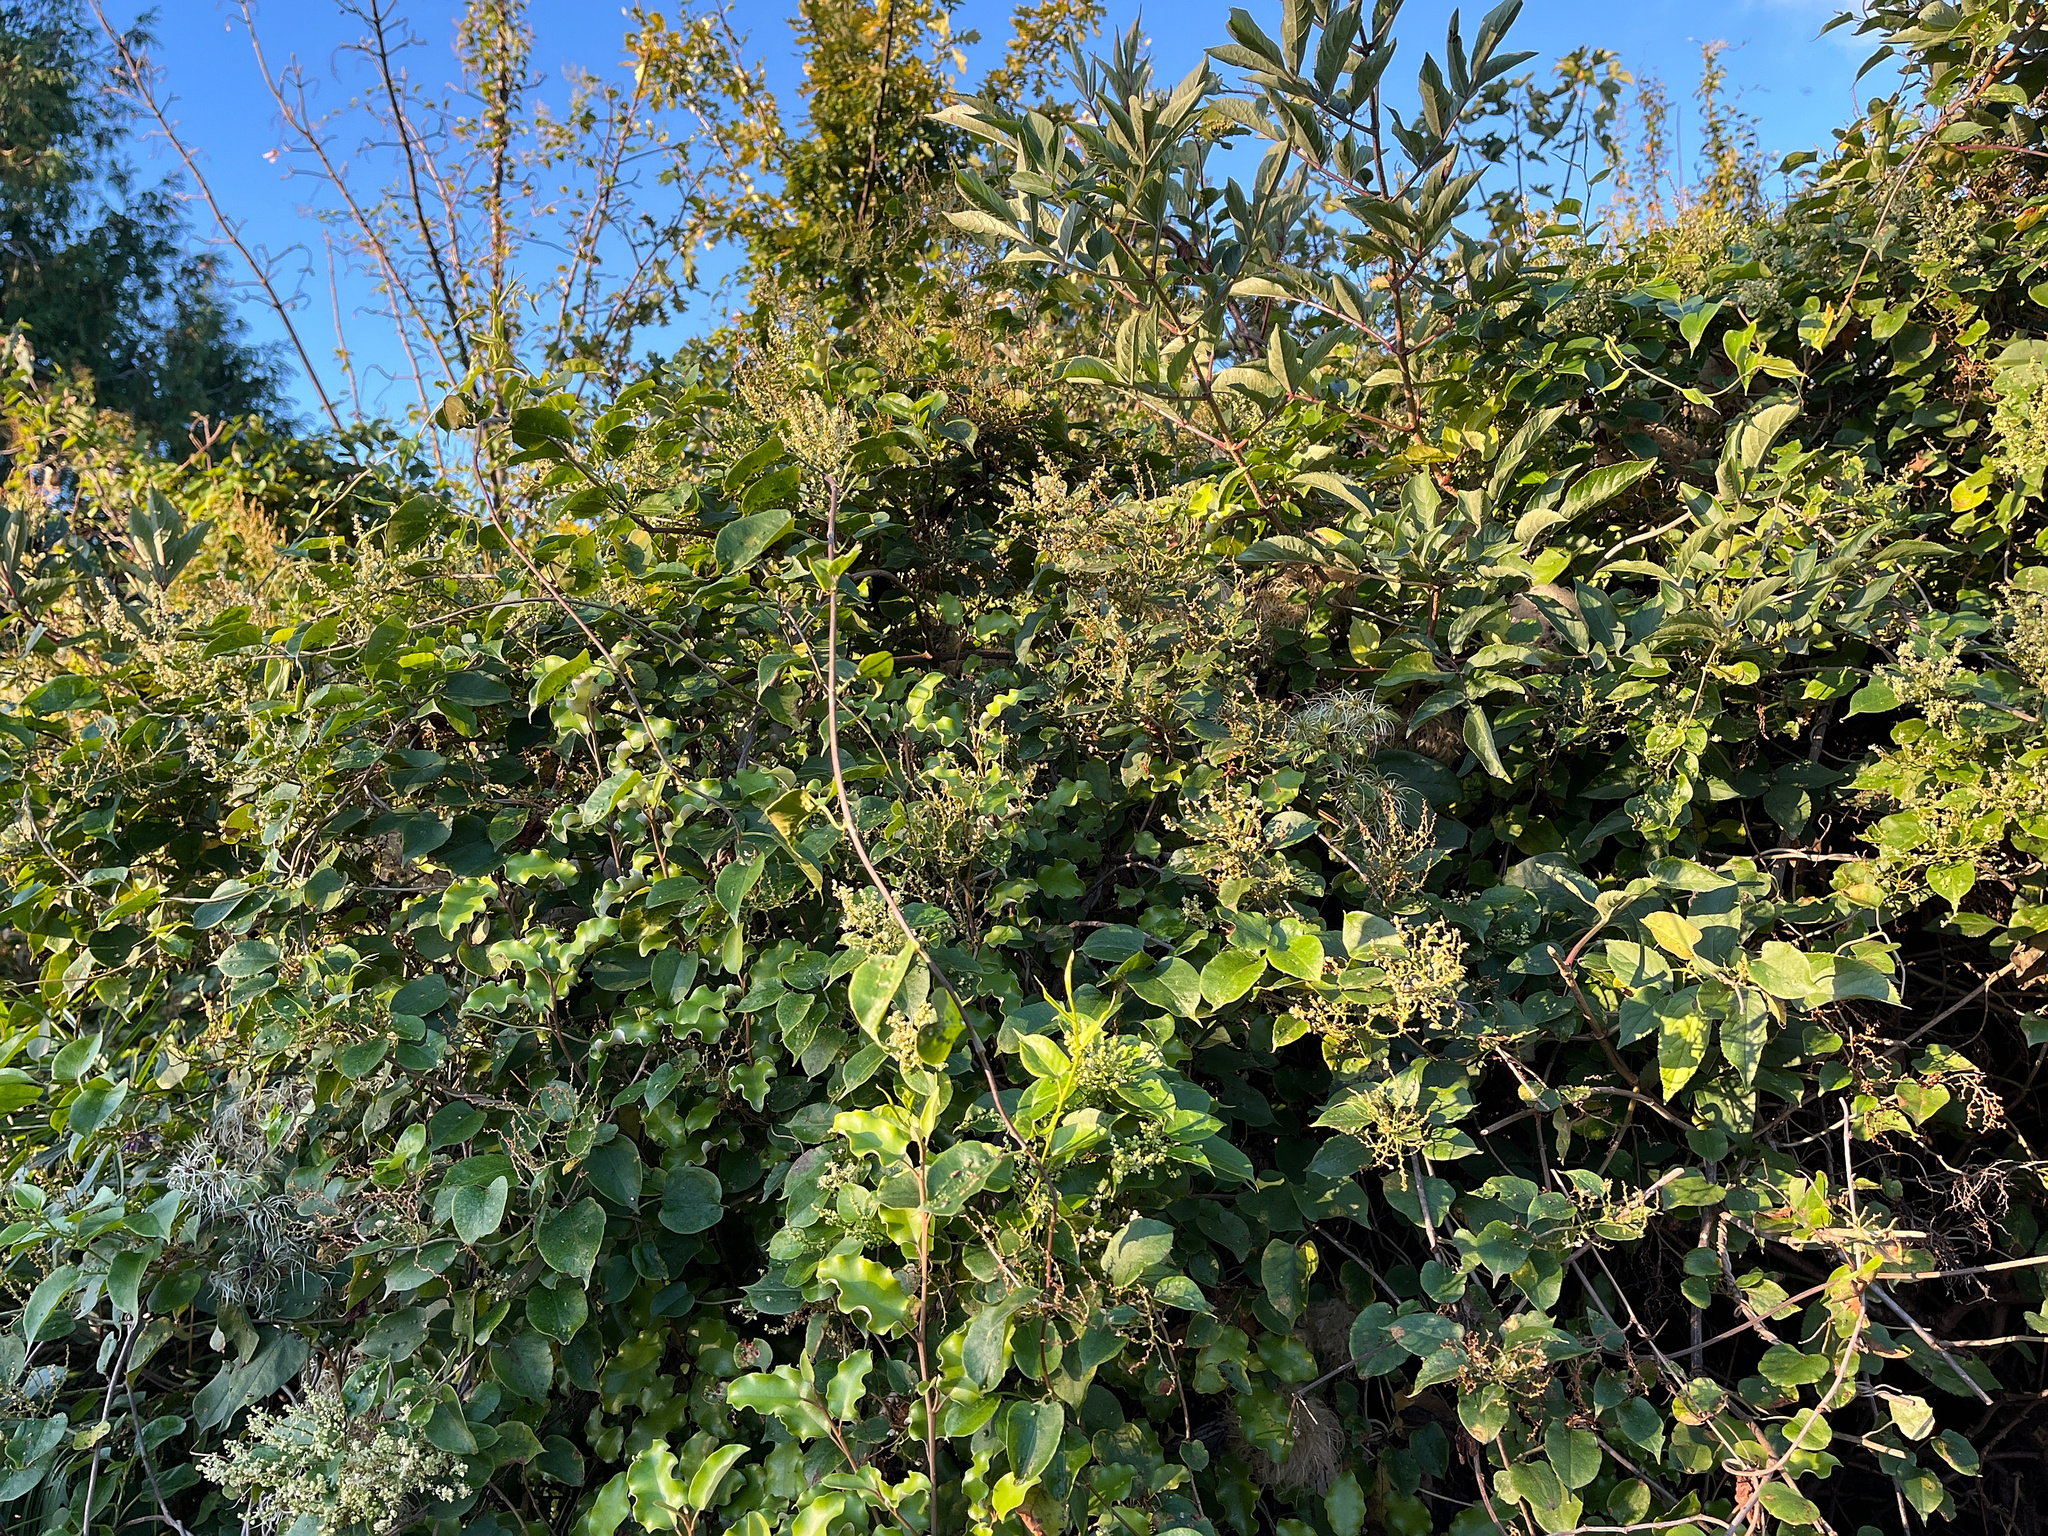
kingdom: Plantae
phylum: Tracheophyta
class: Magnoliopsida
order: Caryophyllales
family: Polygonaceae
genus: Muehlenbeckia
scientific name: Muehlenbeckia australis
